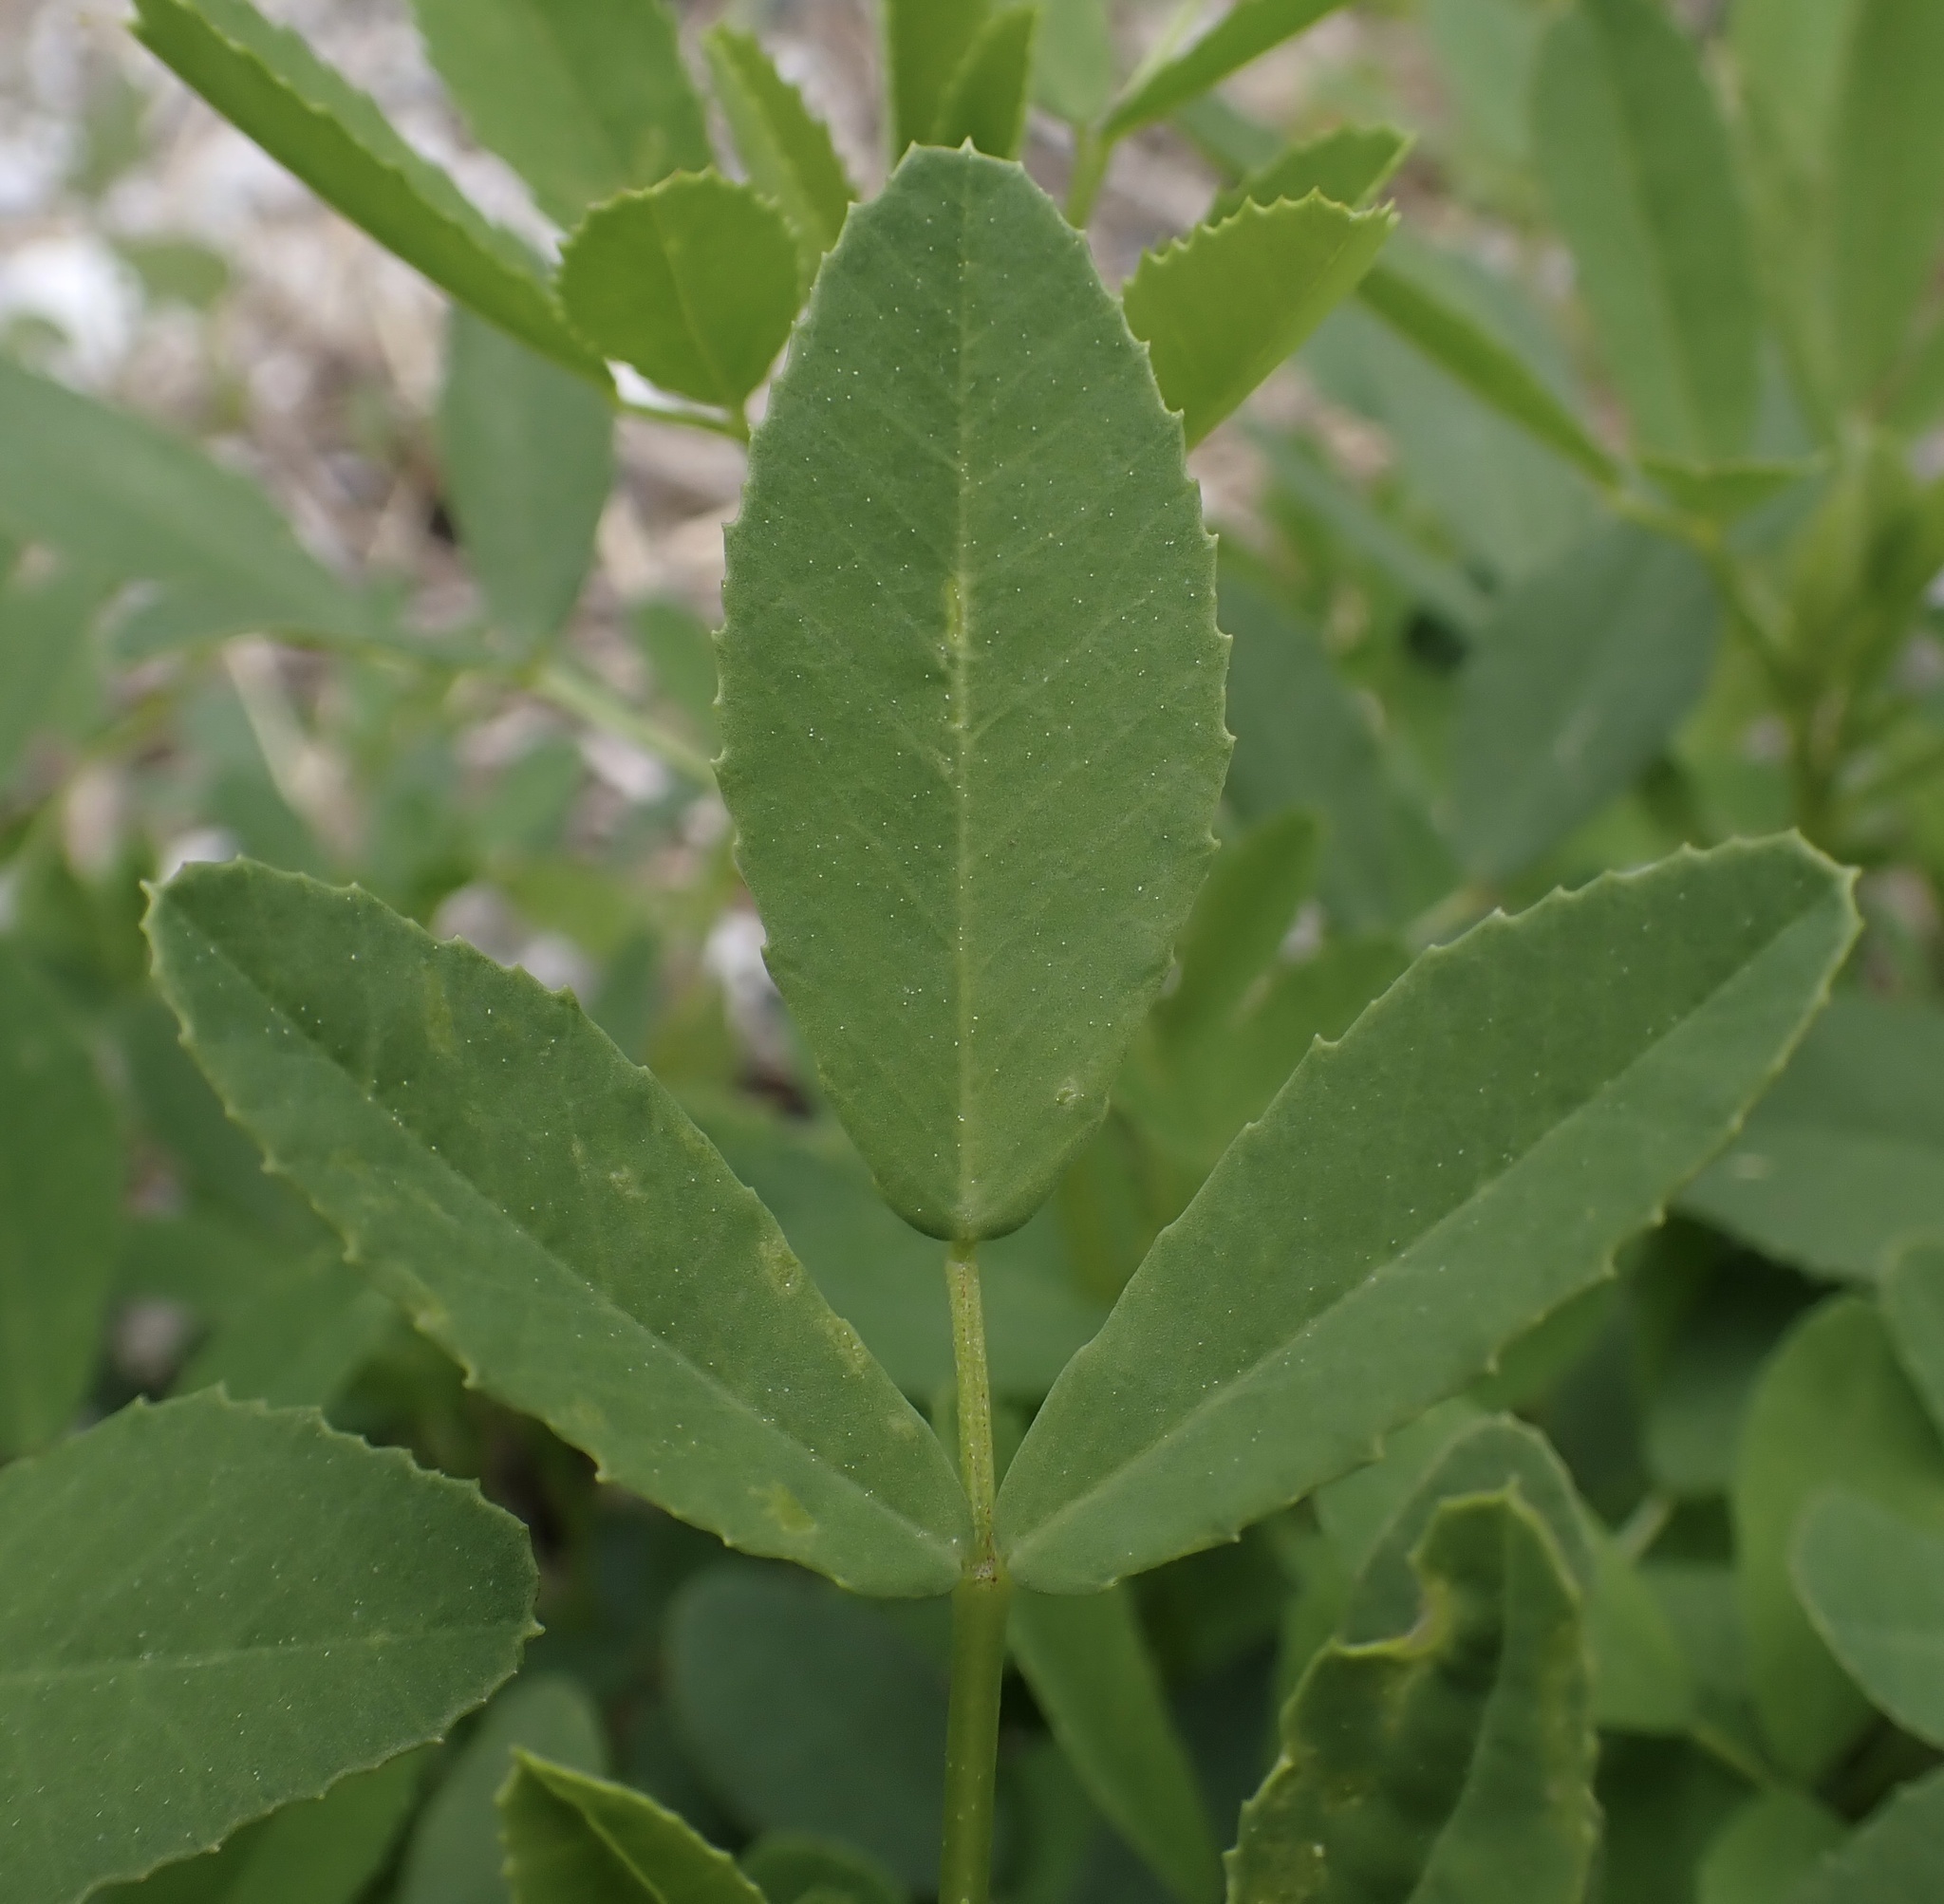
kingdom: Plantae
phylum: Tracheophyta
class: Magnoliopsida
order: Fabales
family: Fabaceae
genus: Medicago
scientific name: Medicago lupulina
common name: Black medick
